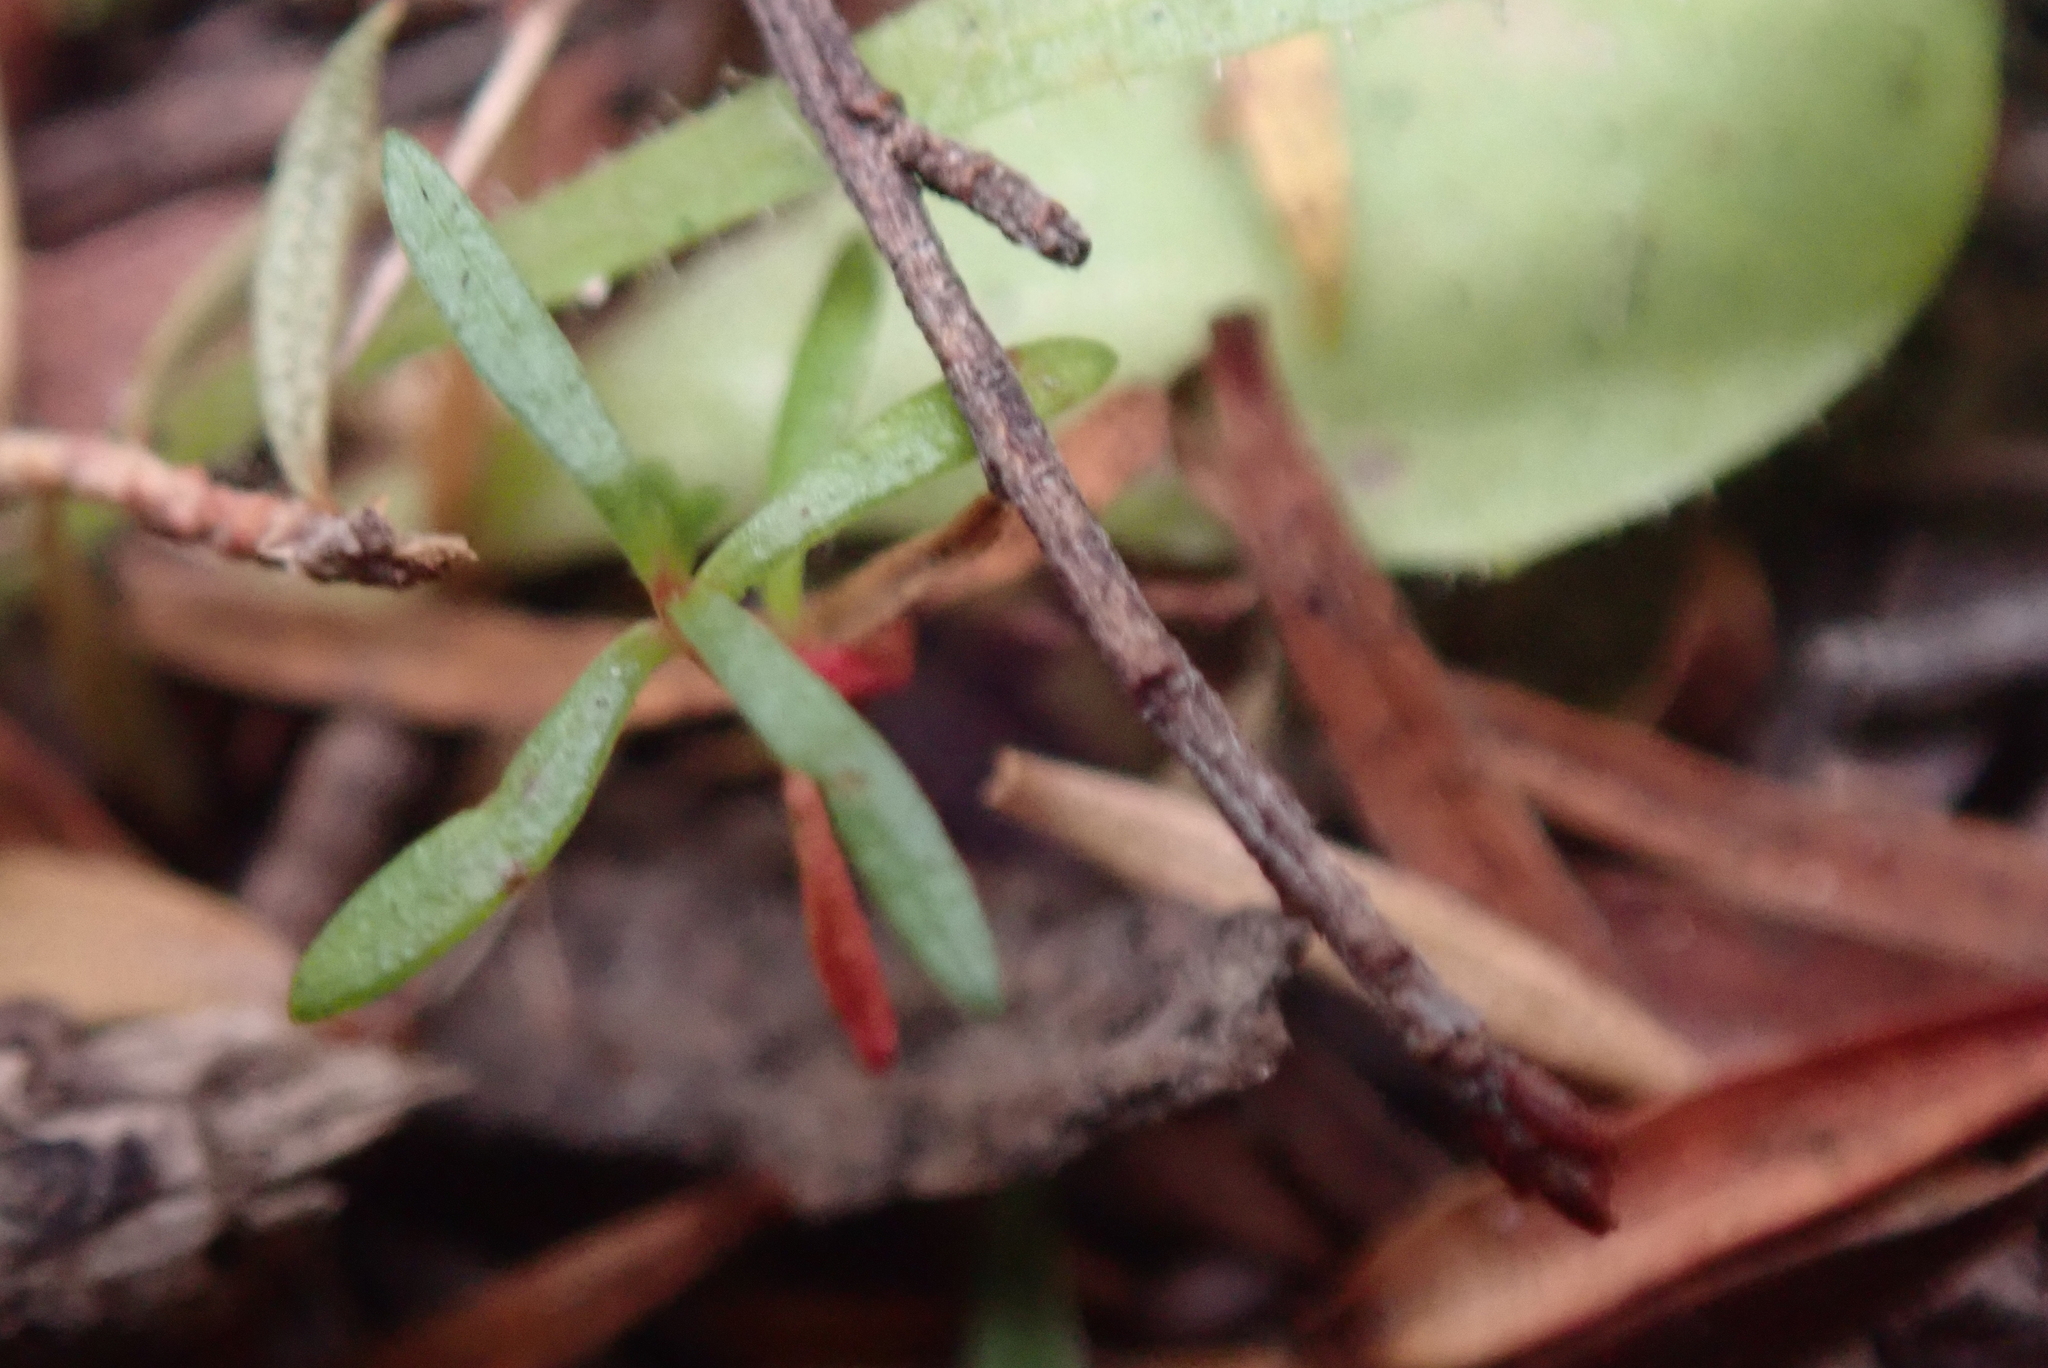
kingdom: Plantae
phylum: Tracheophyta
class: Magnoliopsida
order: Myrtales
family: Myrtaceae
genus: Kunzea
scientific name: Kunzea robusta
